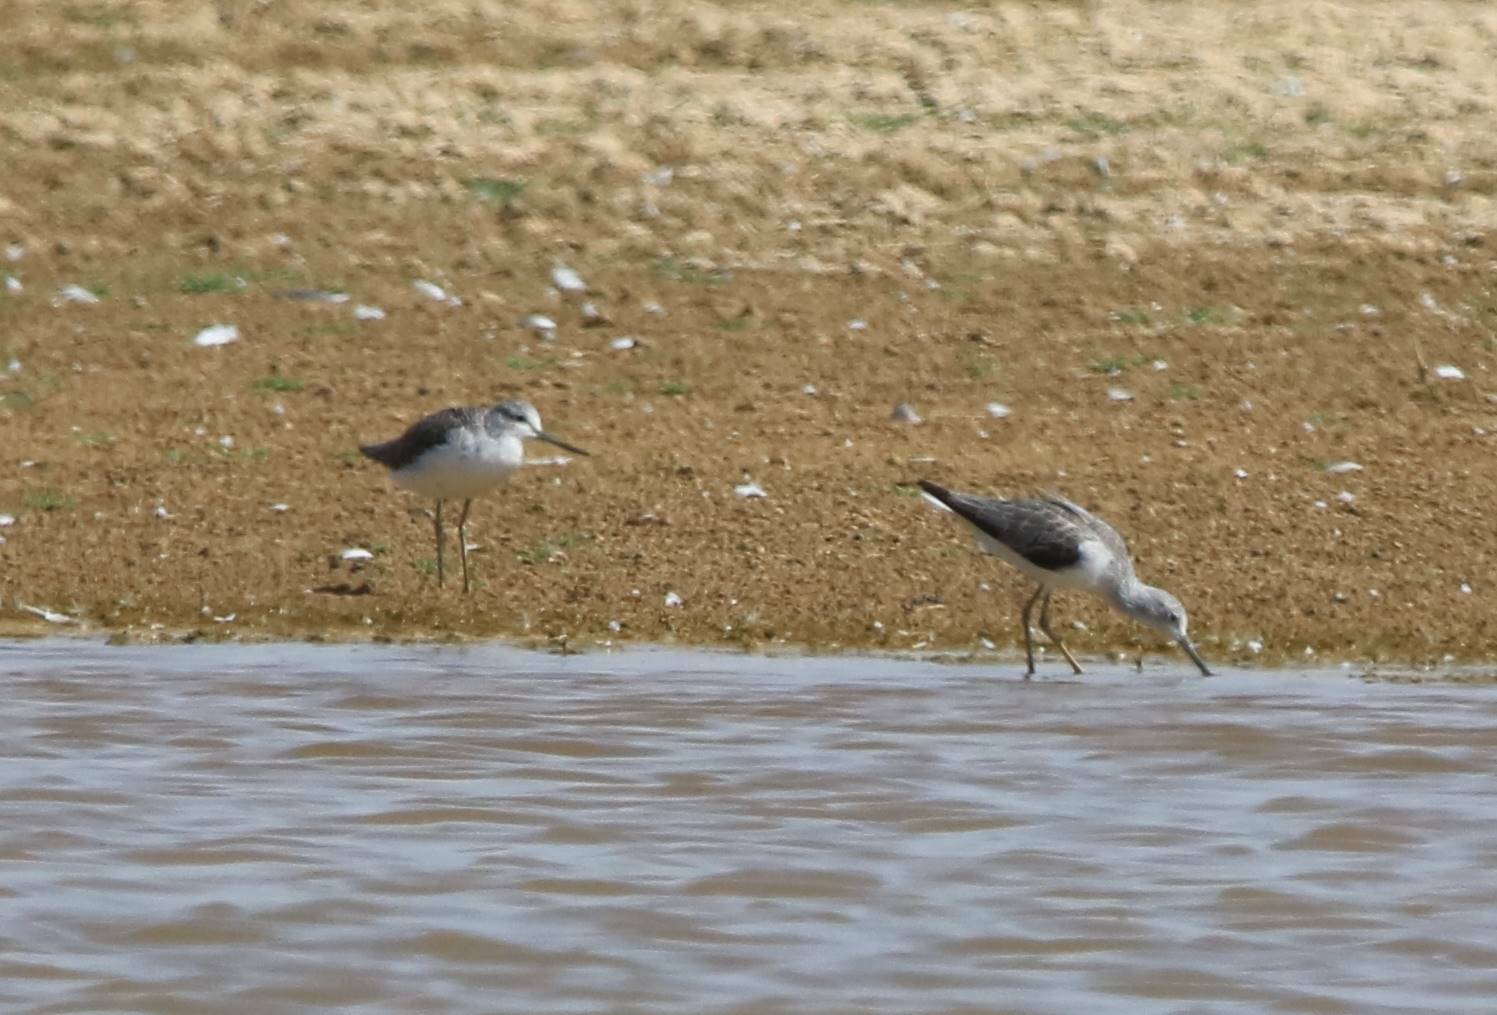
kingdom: Animalia
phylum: Chordata
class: Aves
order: Charadriiformes
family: Scolopacidae
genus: Tringa
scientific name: Tringa nebularia
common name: Common greenshank
